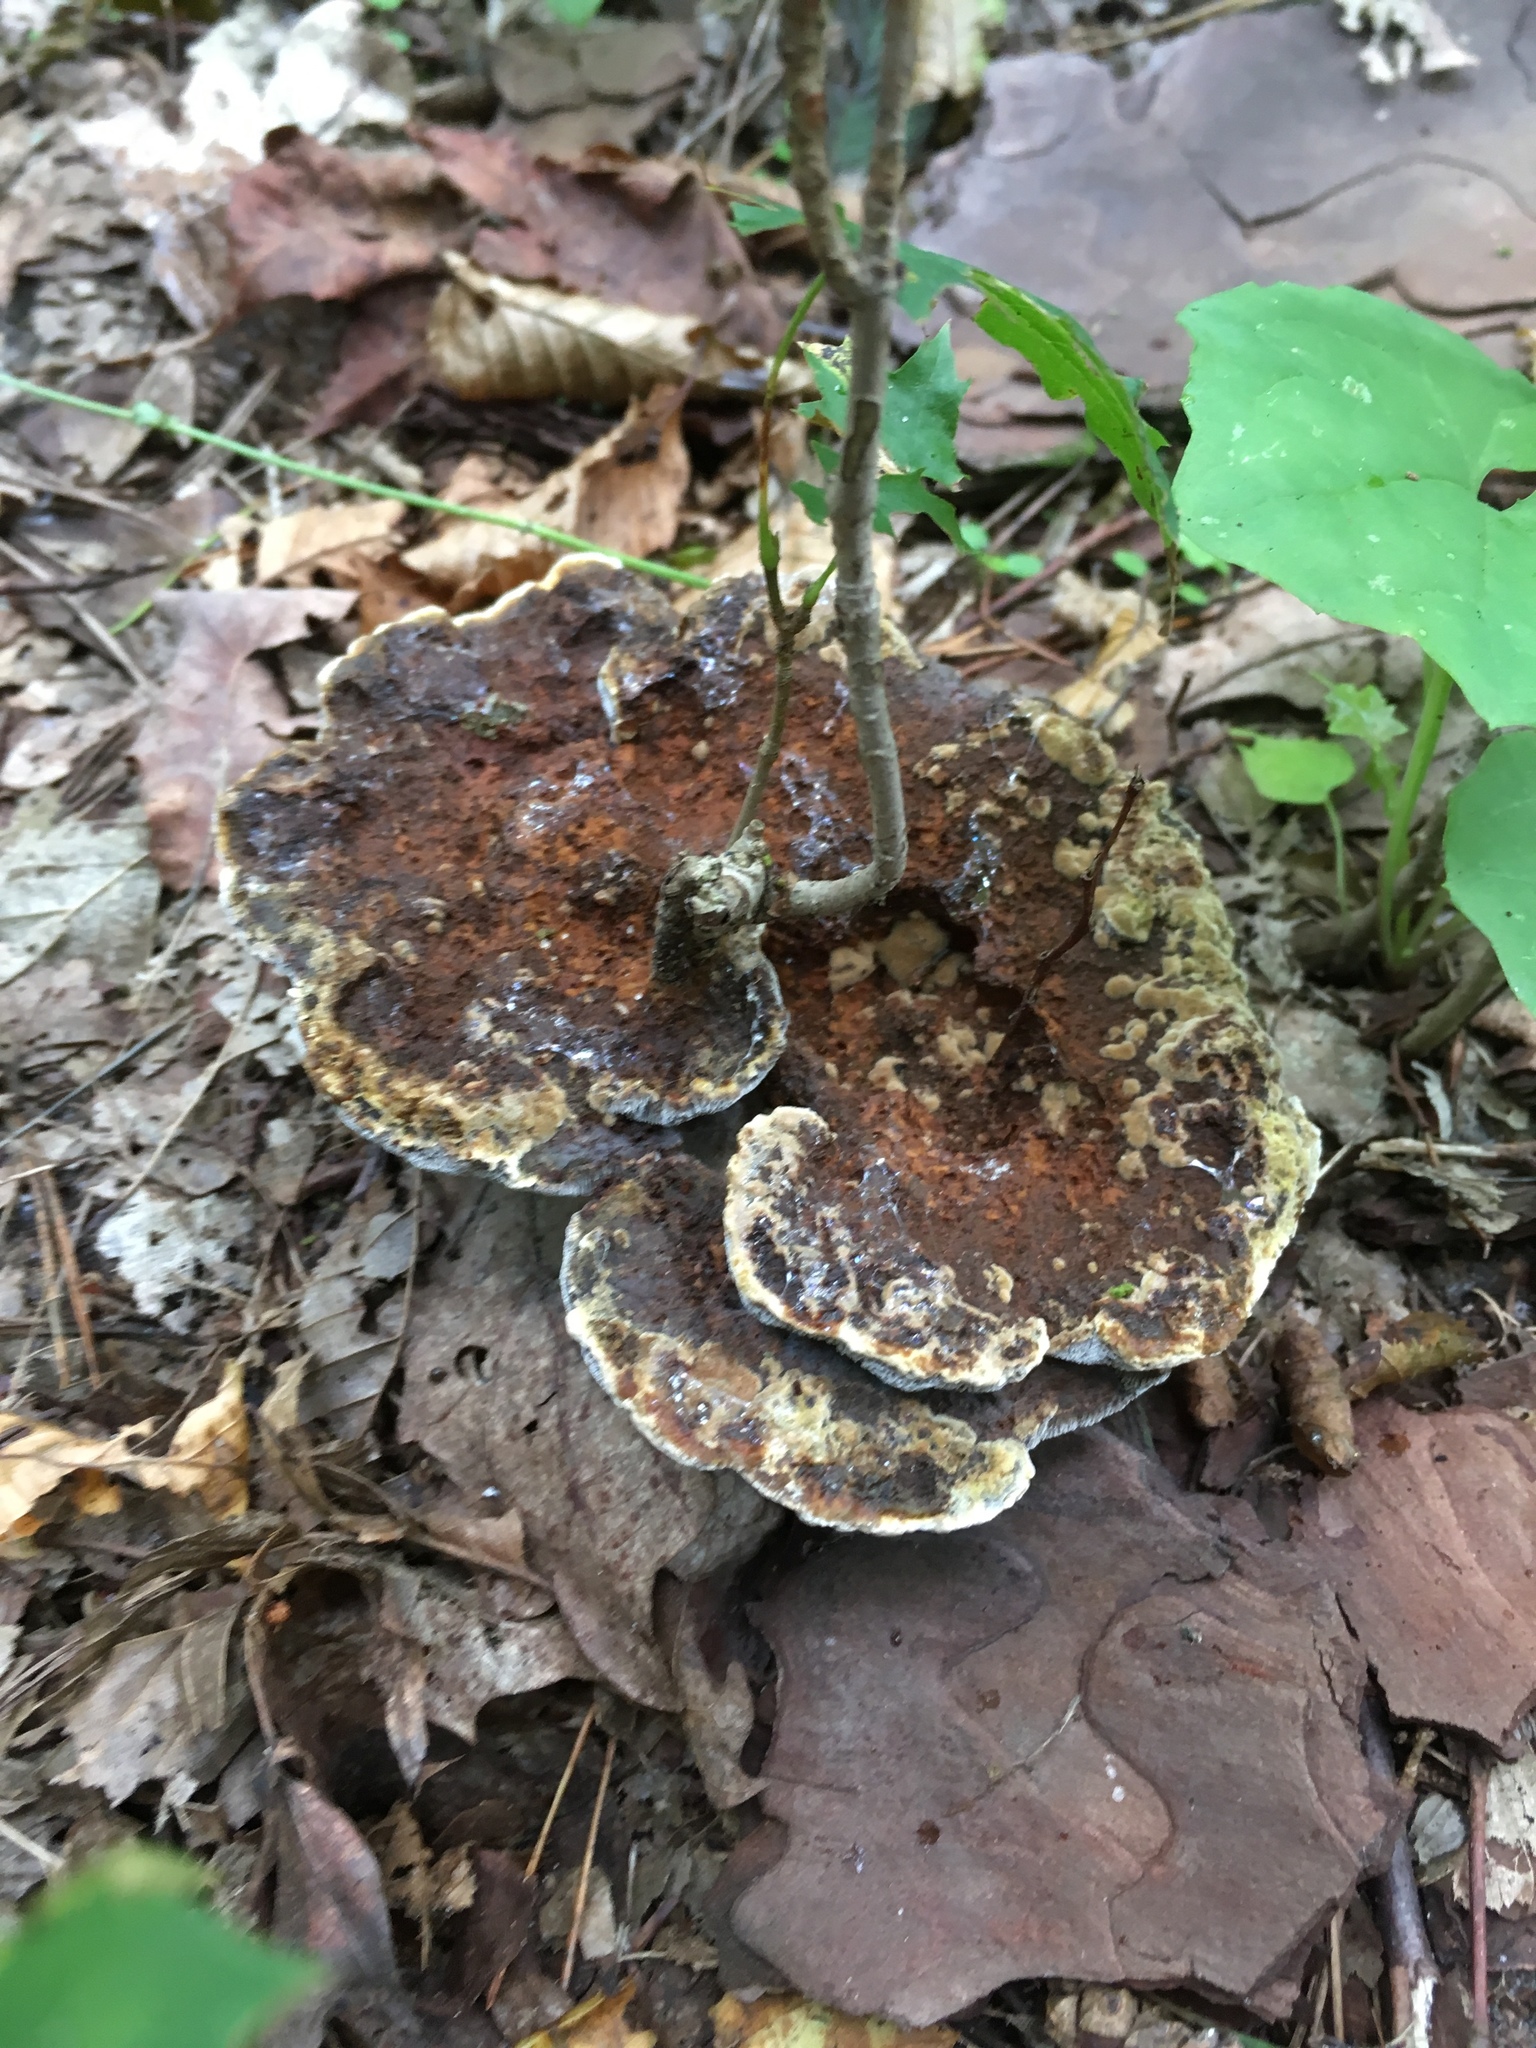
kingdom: Fungi
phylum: Basidiomycota
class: Agaricomycetes
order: Hymenochaetales
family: Hymenochaetaceae
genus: Onnia
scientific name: Onnia triquetra
